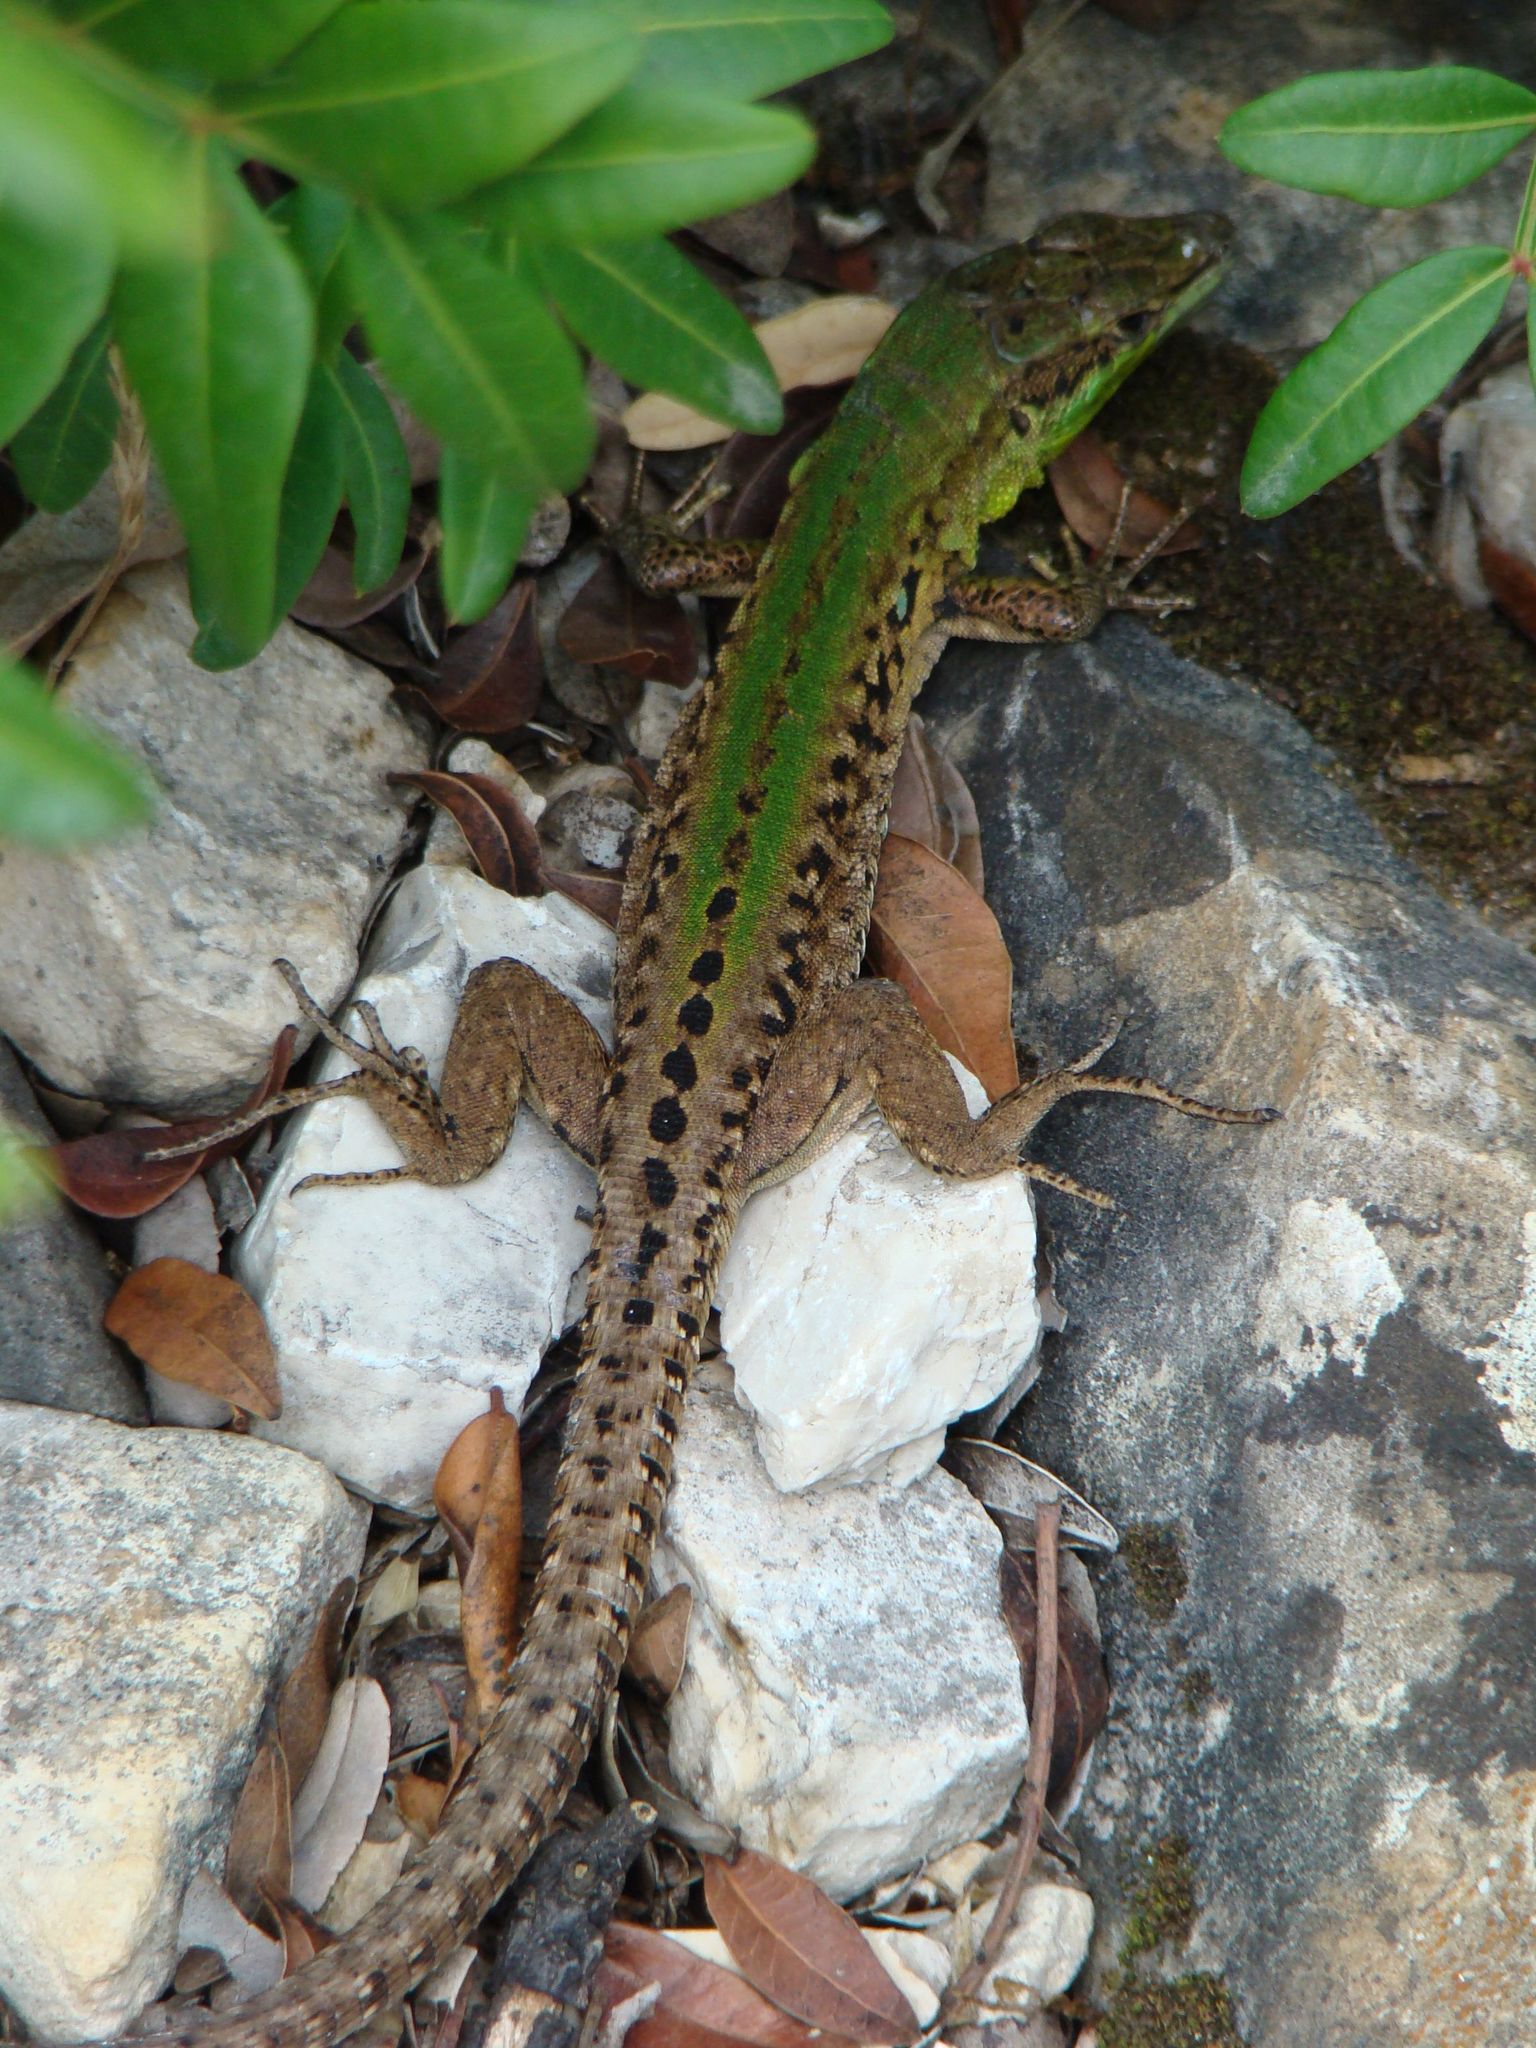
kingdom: Animalia
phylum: Chordata
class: Squamata
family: Lacertidae
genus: Podarcis
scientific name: Podarcis siculus
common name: Italian wall lizard
